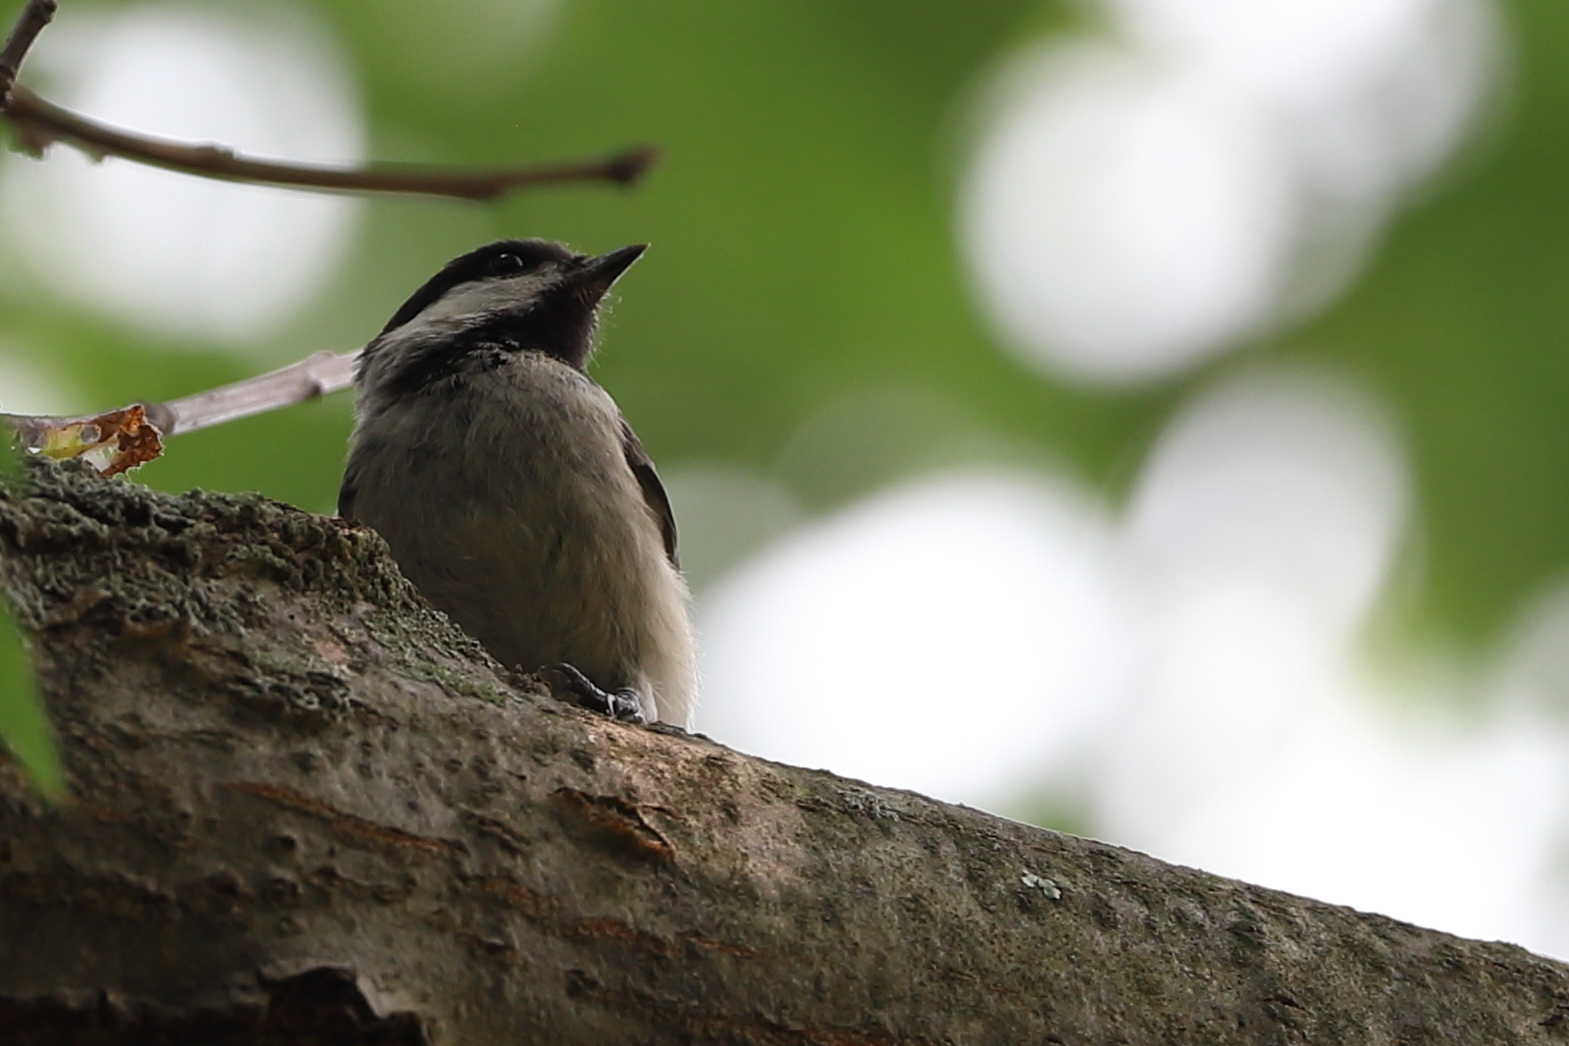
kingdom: Animalia
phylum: Chordata
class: Aves
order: Passeriformes
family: Paridae
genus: Poecile
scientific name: Poecile atricapillus
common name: Black-capped chickadee
